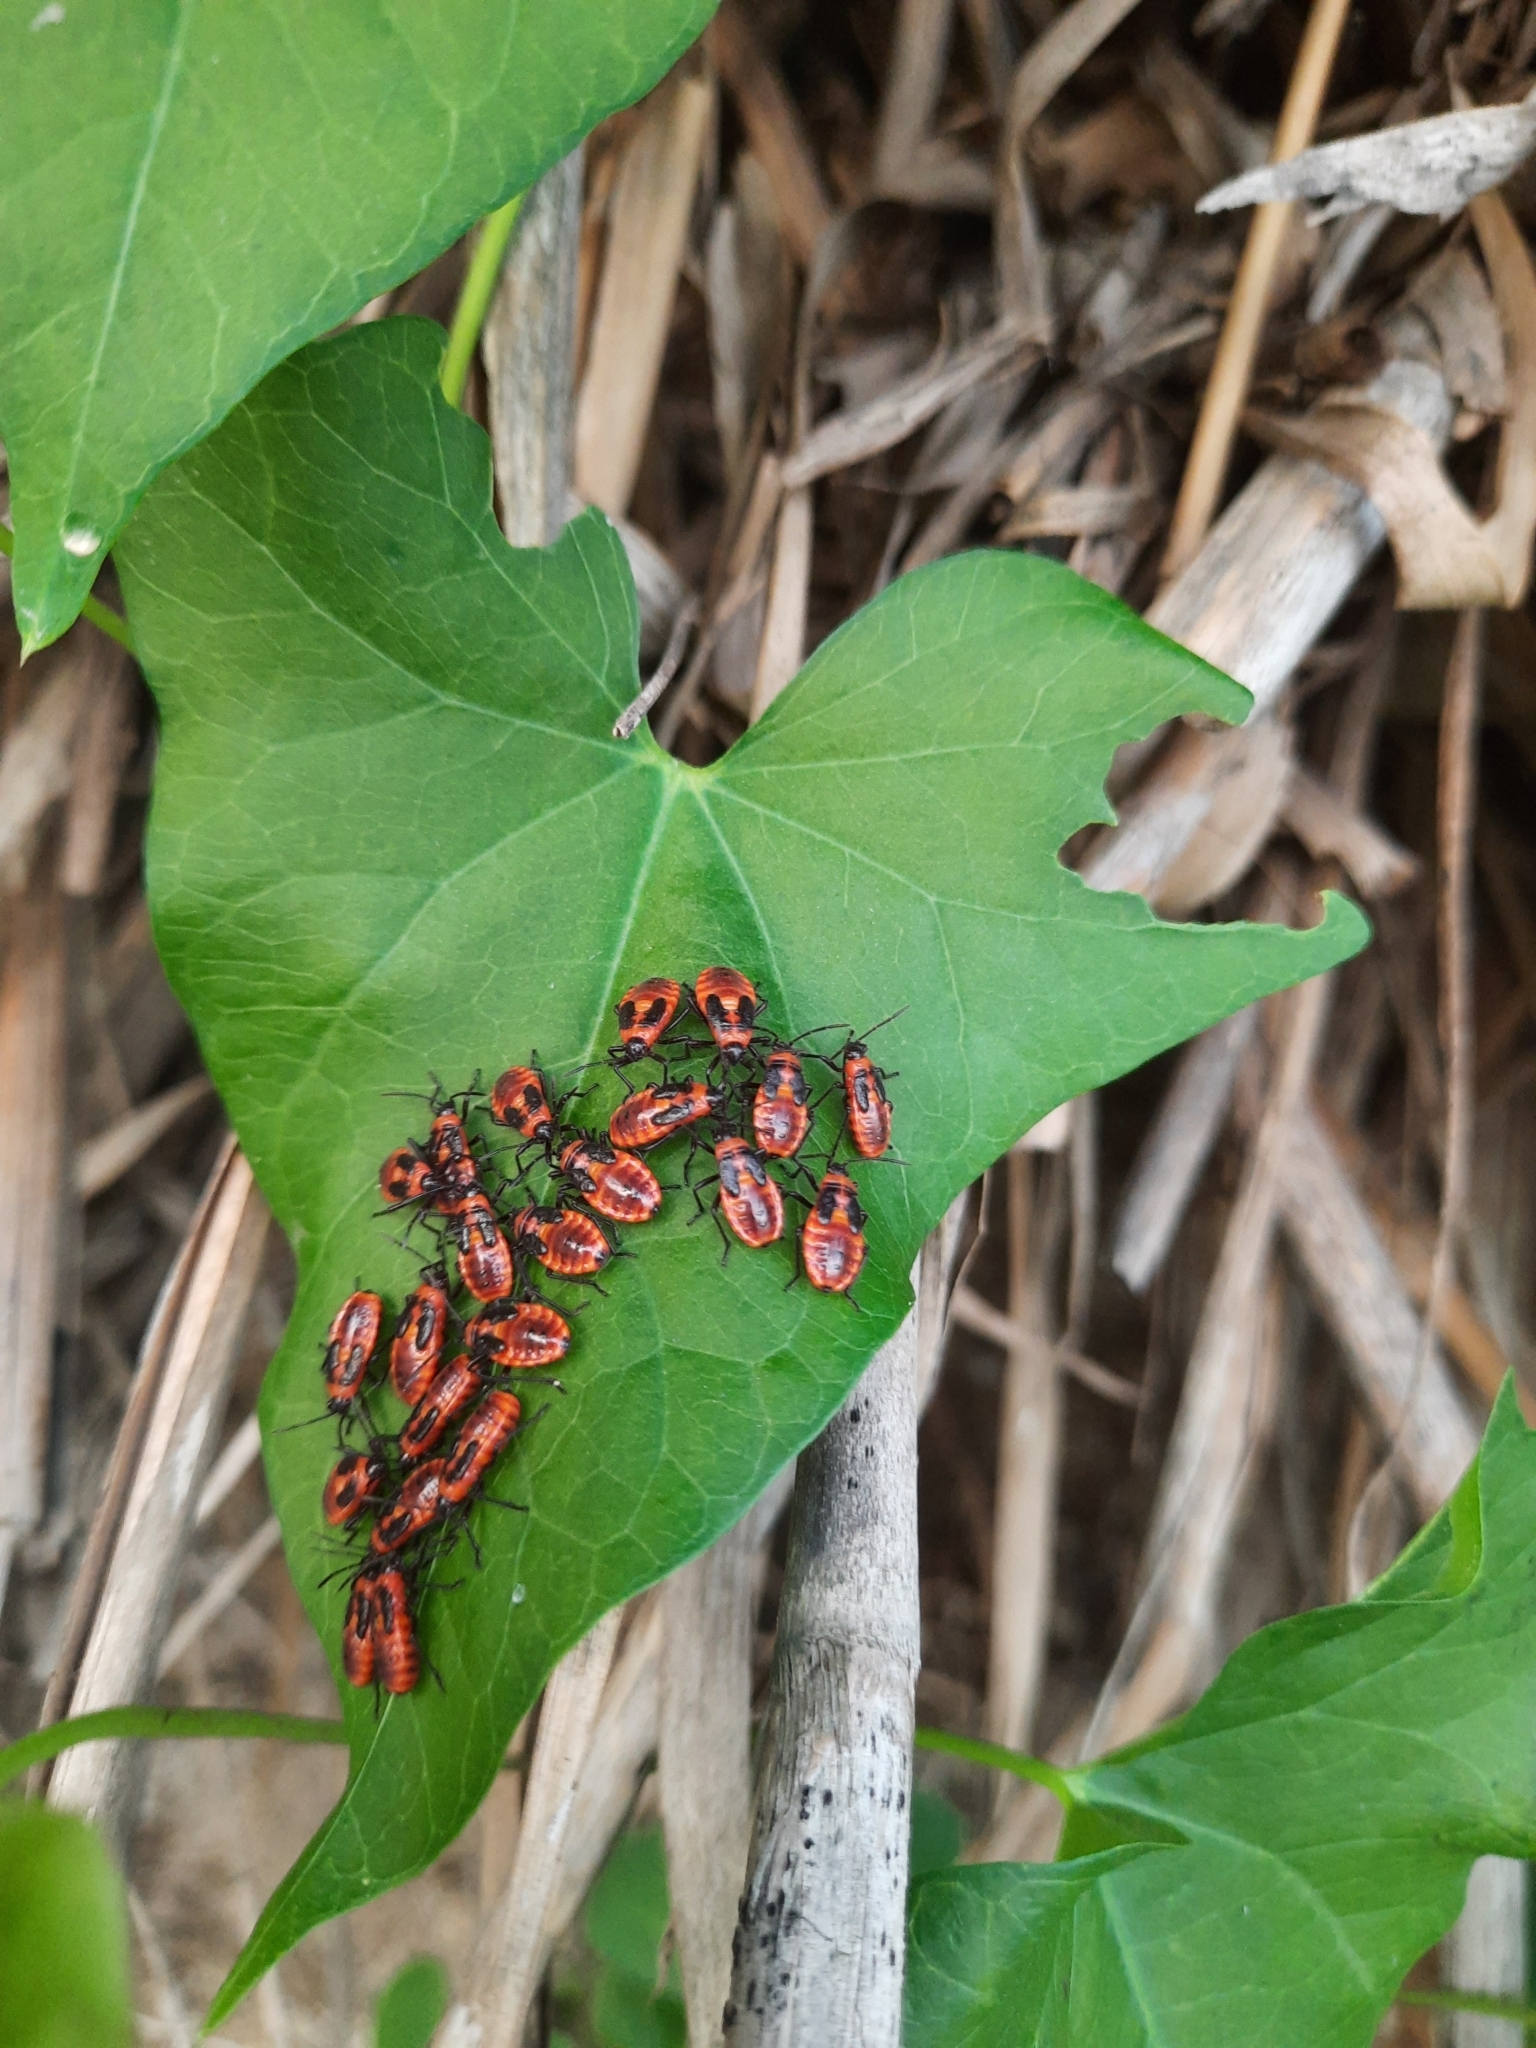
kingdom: Animalia
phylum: Arthropoda
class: Insecta
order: Hemiptera
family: Lygaeidae
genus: Tropidothorax
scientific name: Tropidothorax leucopterus
